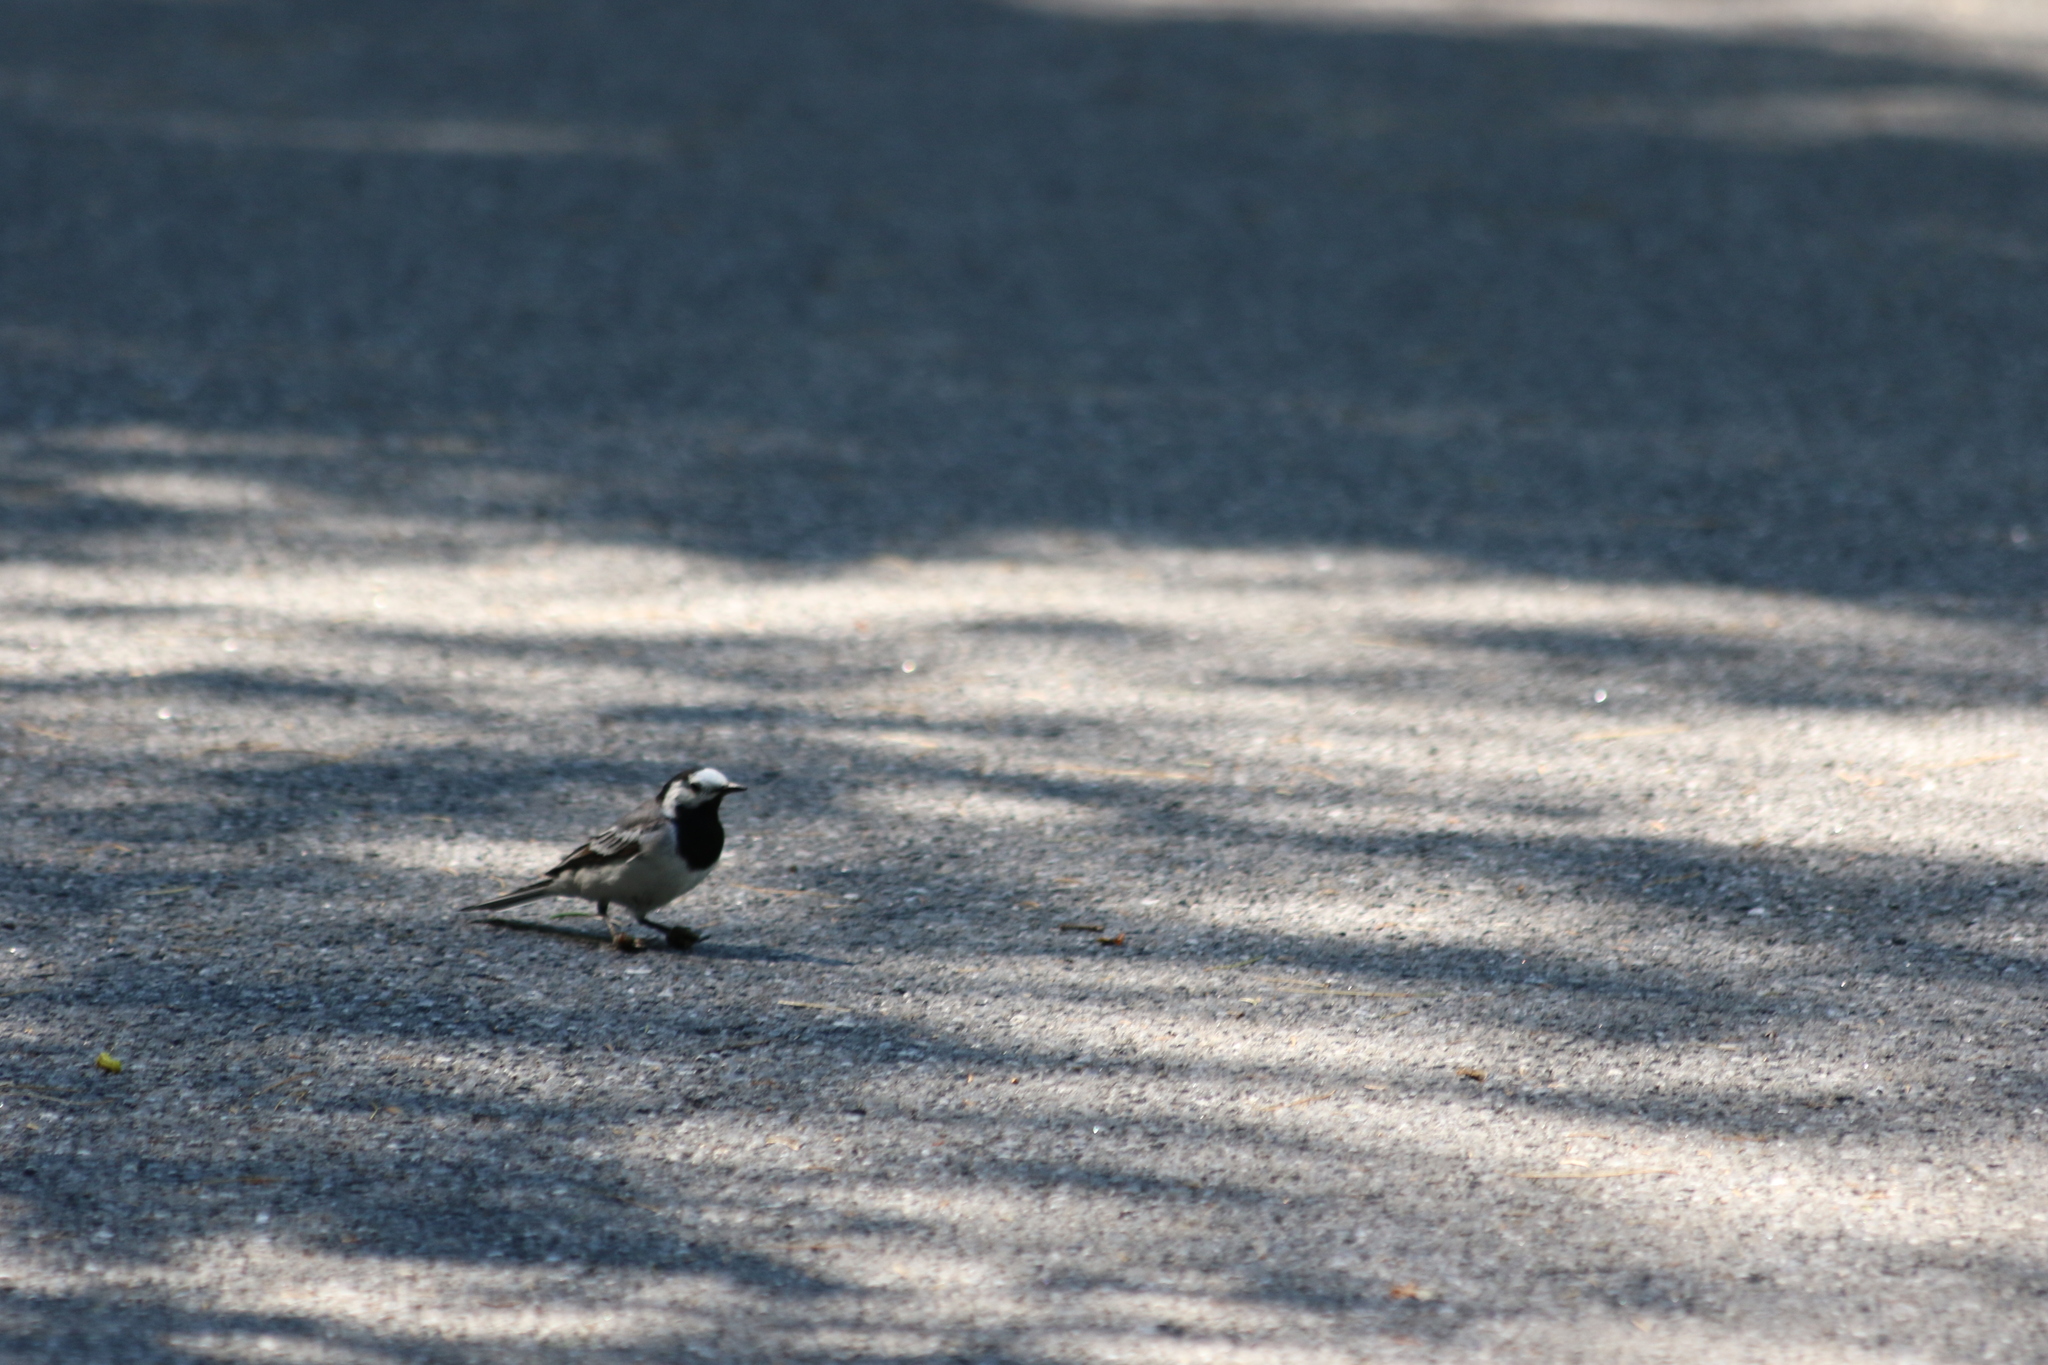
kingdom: Animalia
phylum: Chordata
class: Aves
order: Passeriformes
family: Motacillidae
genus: Motacilla
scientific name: Motacilla alba
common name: White wagtail
